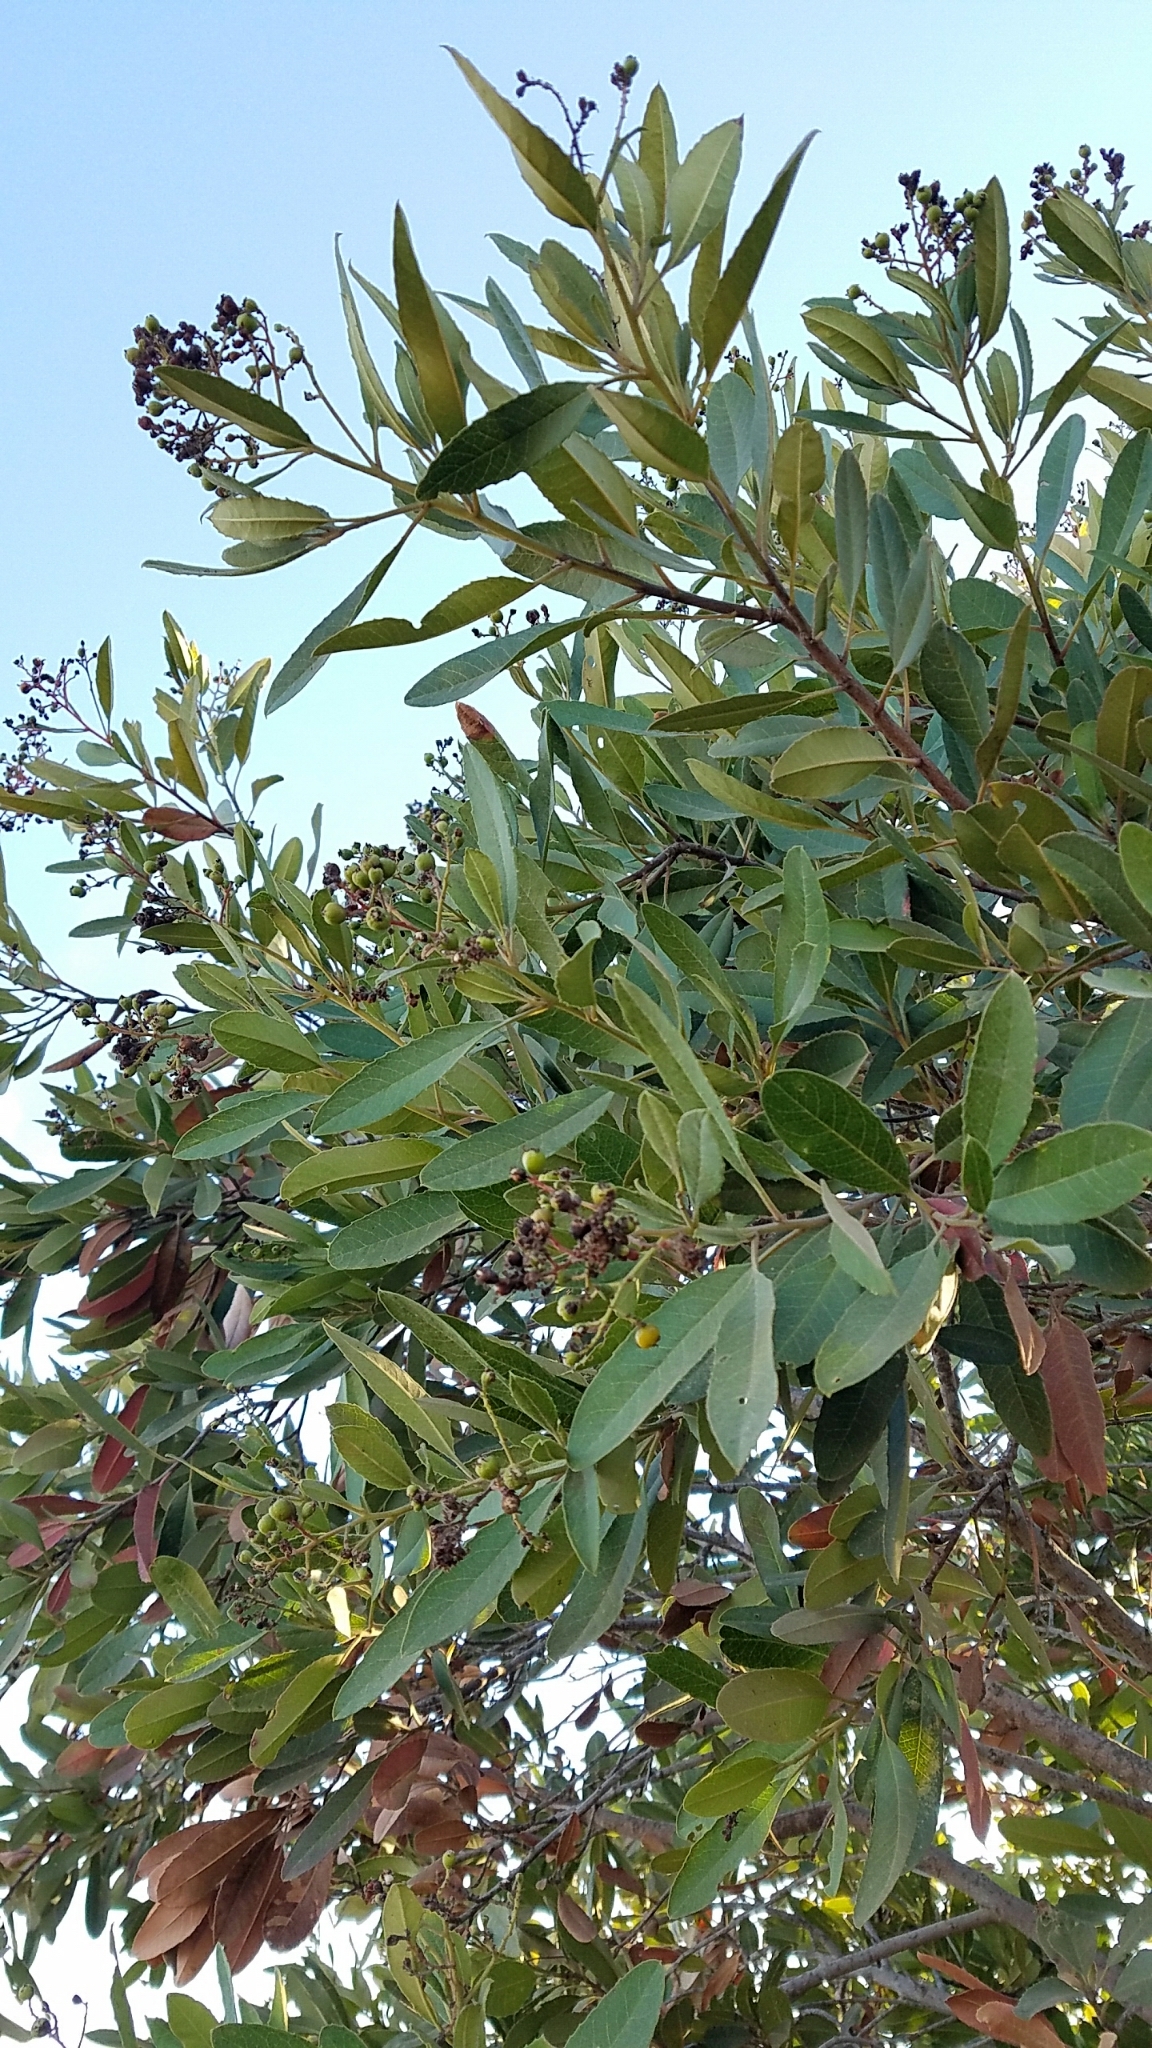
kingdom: Plantae
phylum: Tracheophyta
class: Magnoliopsida
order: Rosales
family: Rosaceae
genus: Heteromeles
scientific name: Heteromeles arbutifolia
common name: California-holly
